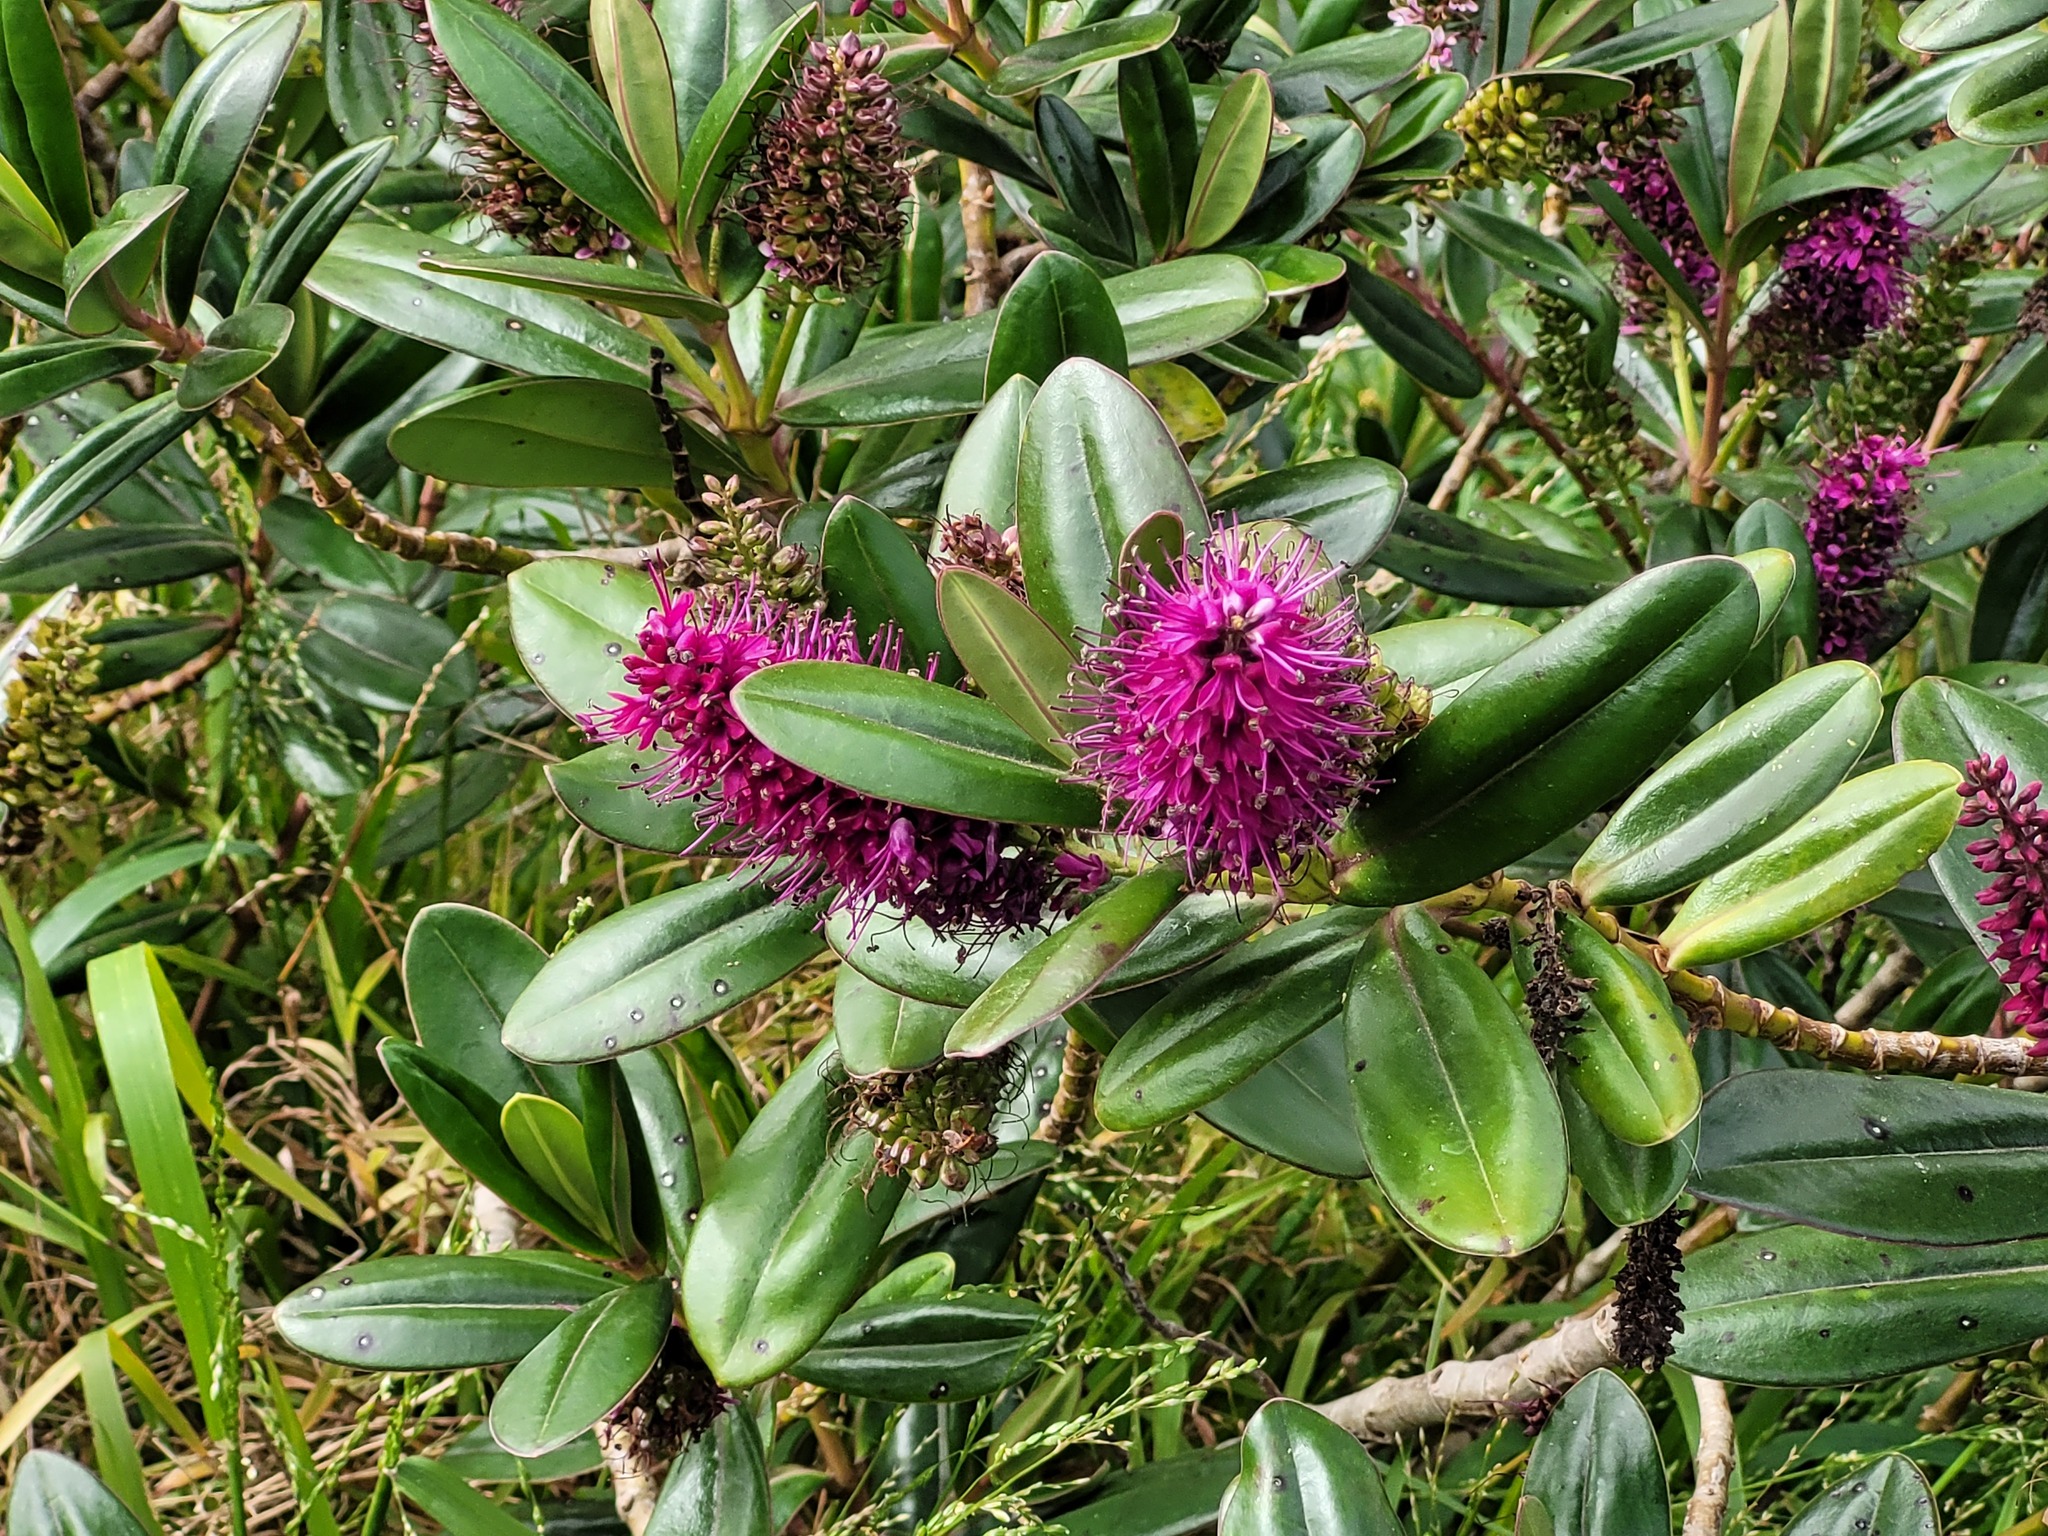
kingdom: Plantae
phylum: Tracheophyta
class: Magnoliopsida
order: Lamiales
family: Plantaginaceae
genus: Veronica
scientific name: Veronica speciosa
